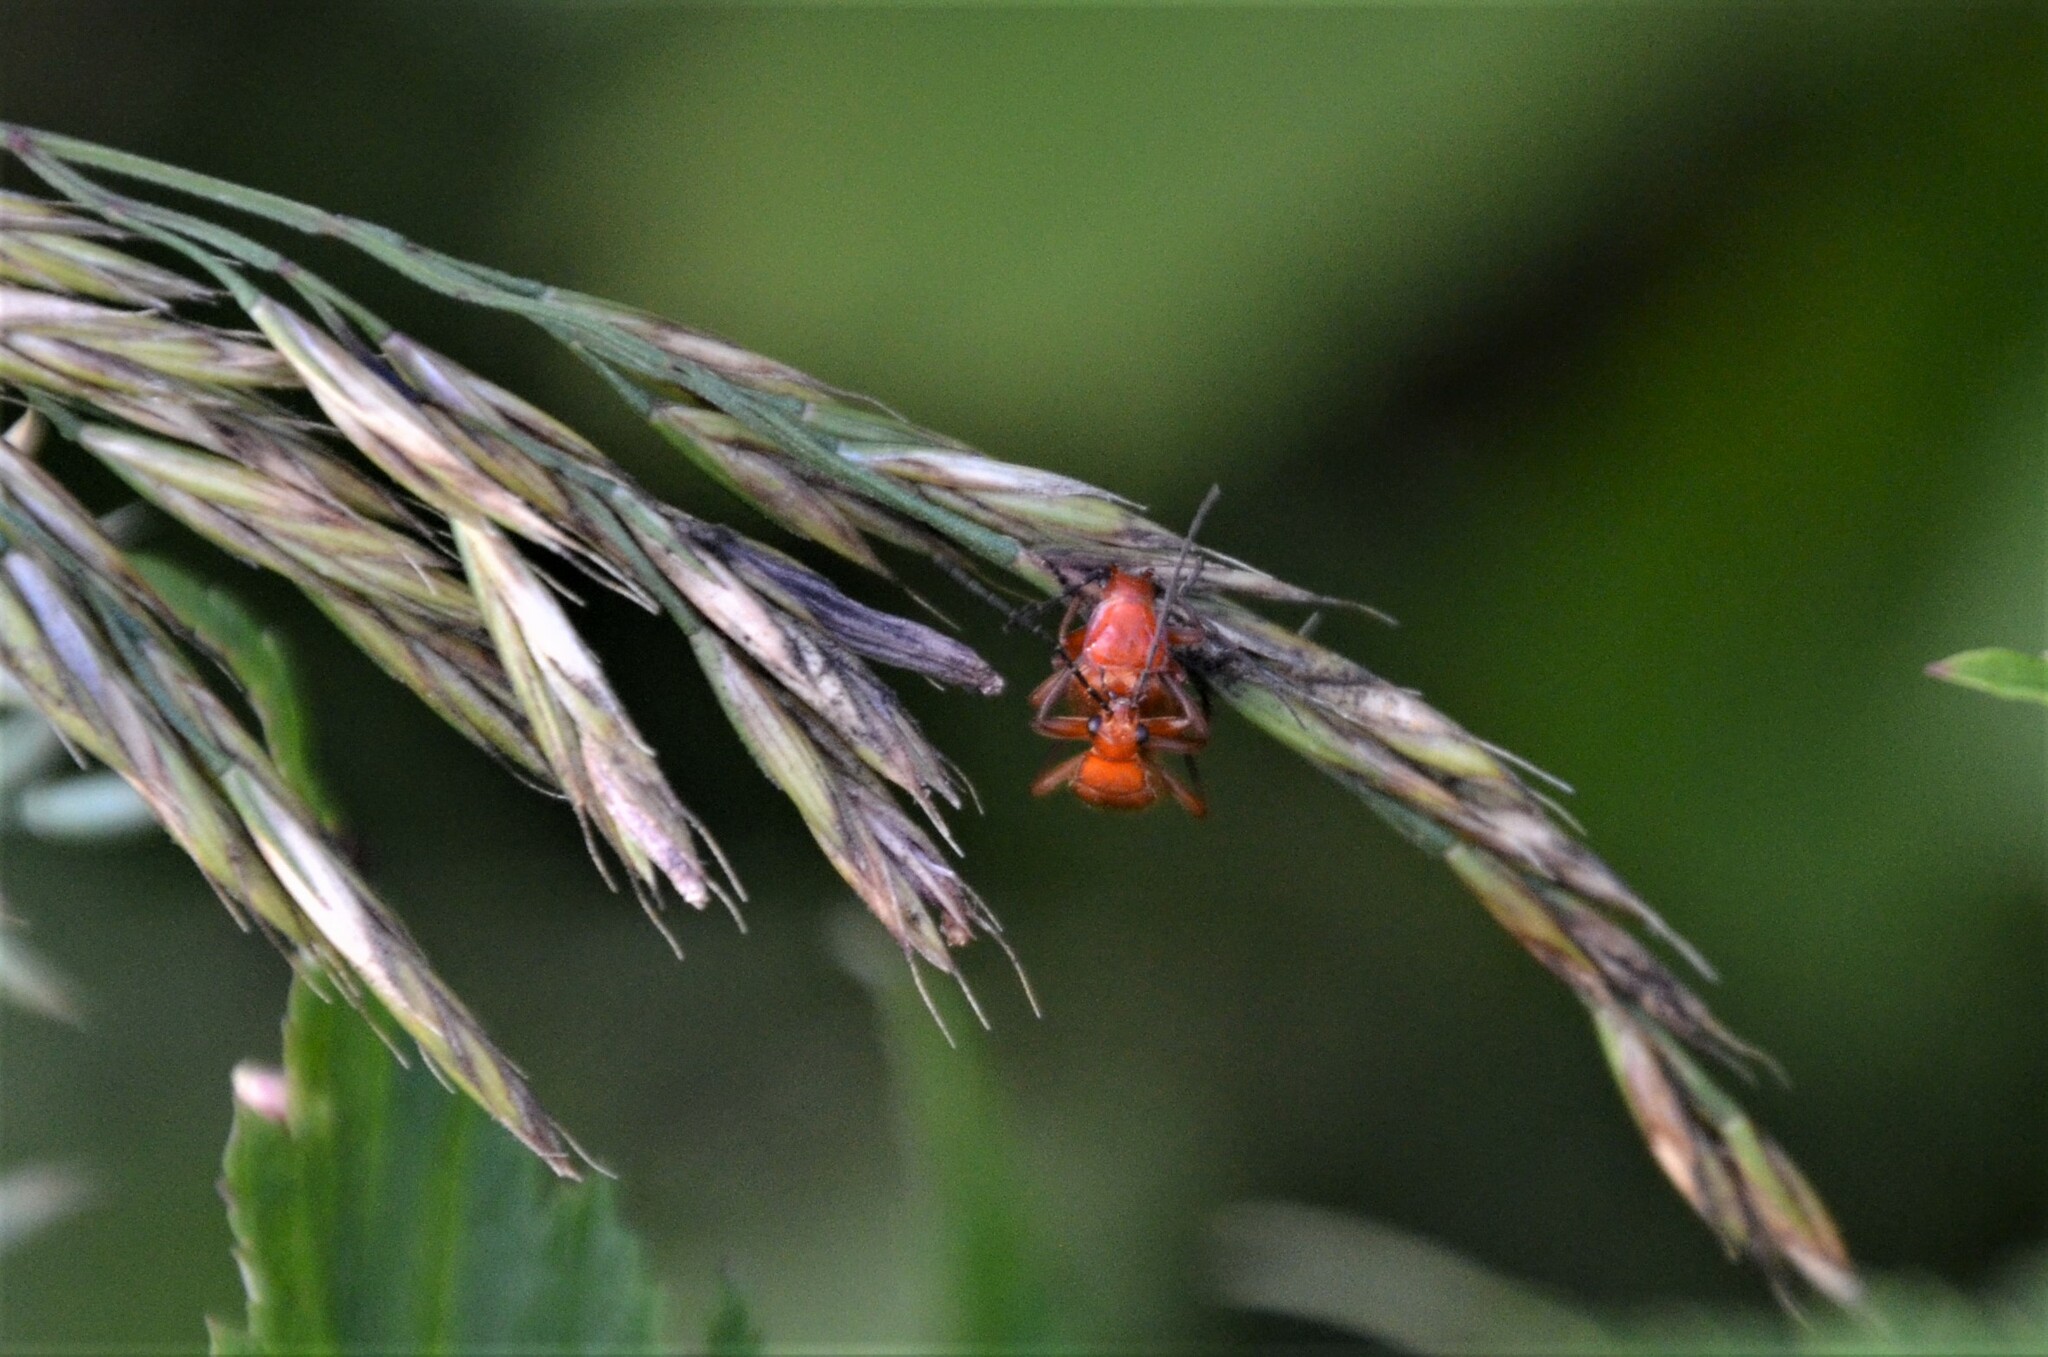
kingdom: Animalia
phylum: Arthropoda
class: Insecta
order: Coleoptera
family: Cantharidae
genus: Rhagonycha
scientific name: Rhagonycha fulva
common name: Common red soldier beetle
